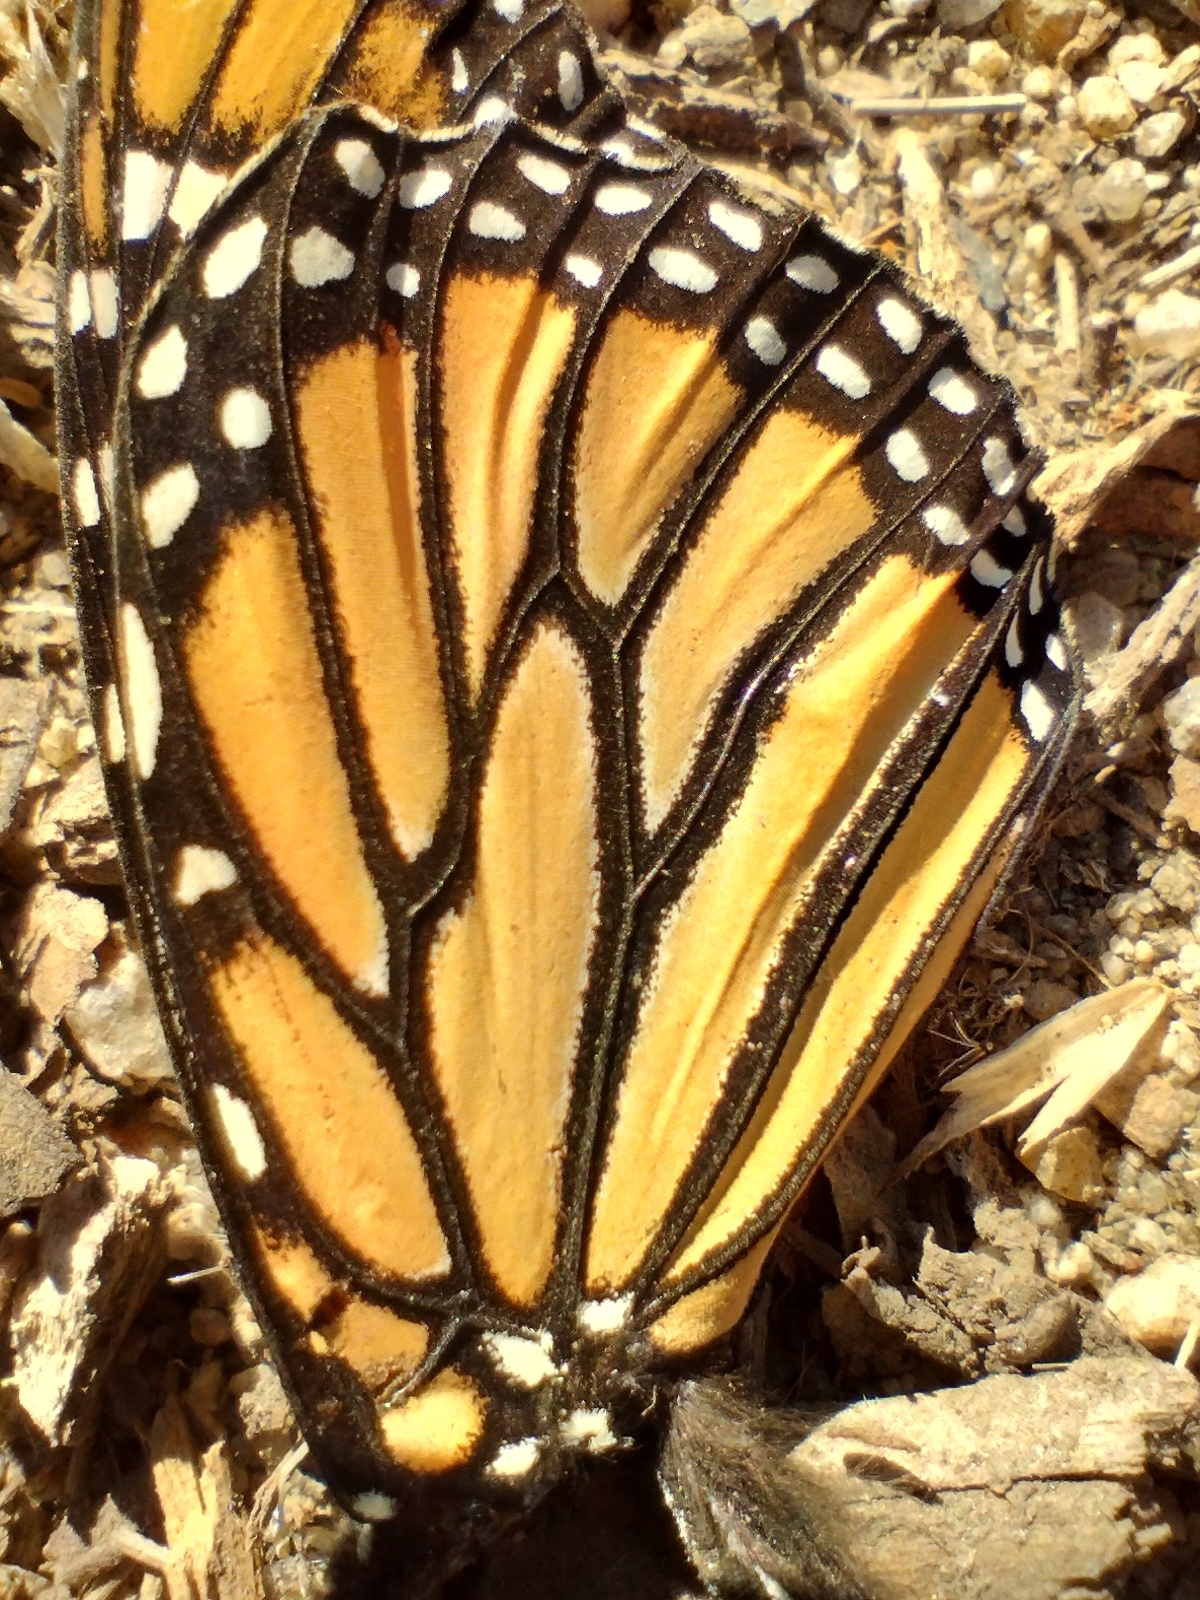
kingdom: Animalia
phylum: Arthropoda
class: Insecta
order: Lepidoptera
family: Nymphalidae
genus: Danaus
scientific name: Danaus plexippus
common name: Monarch
